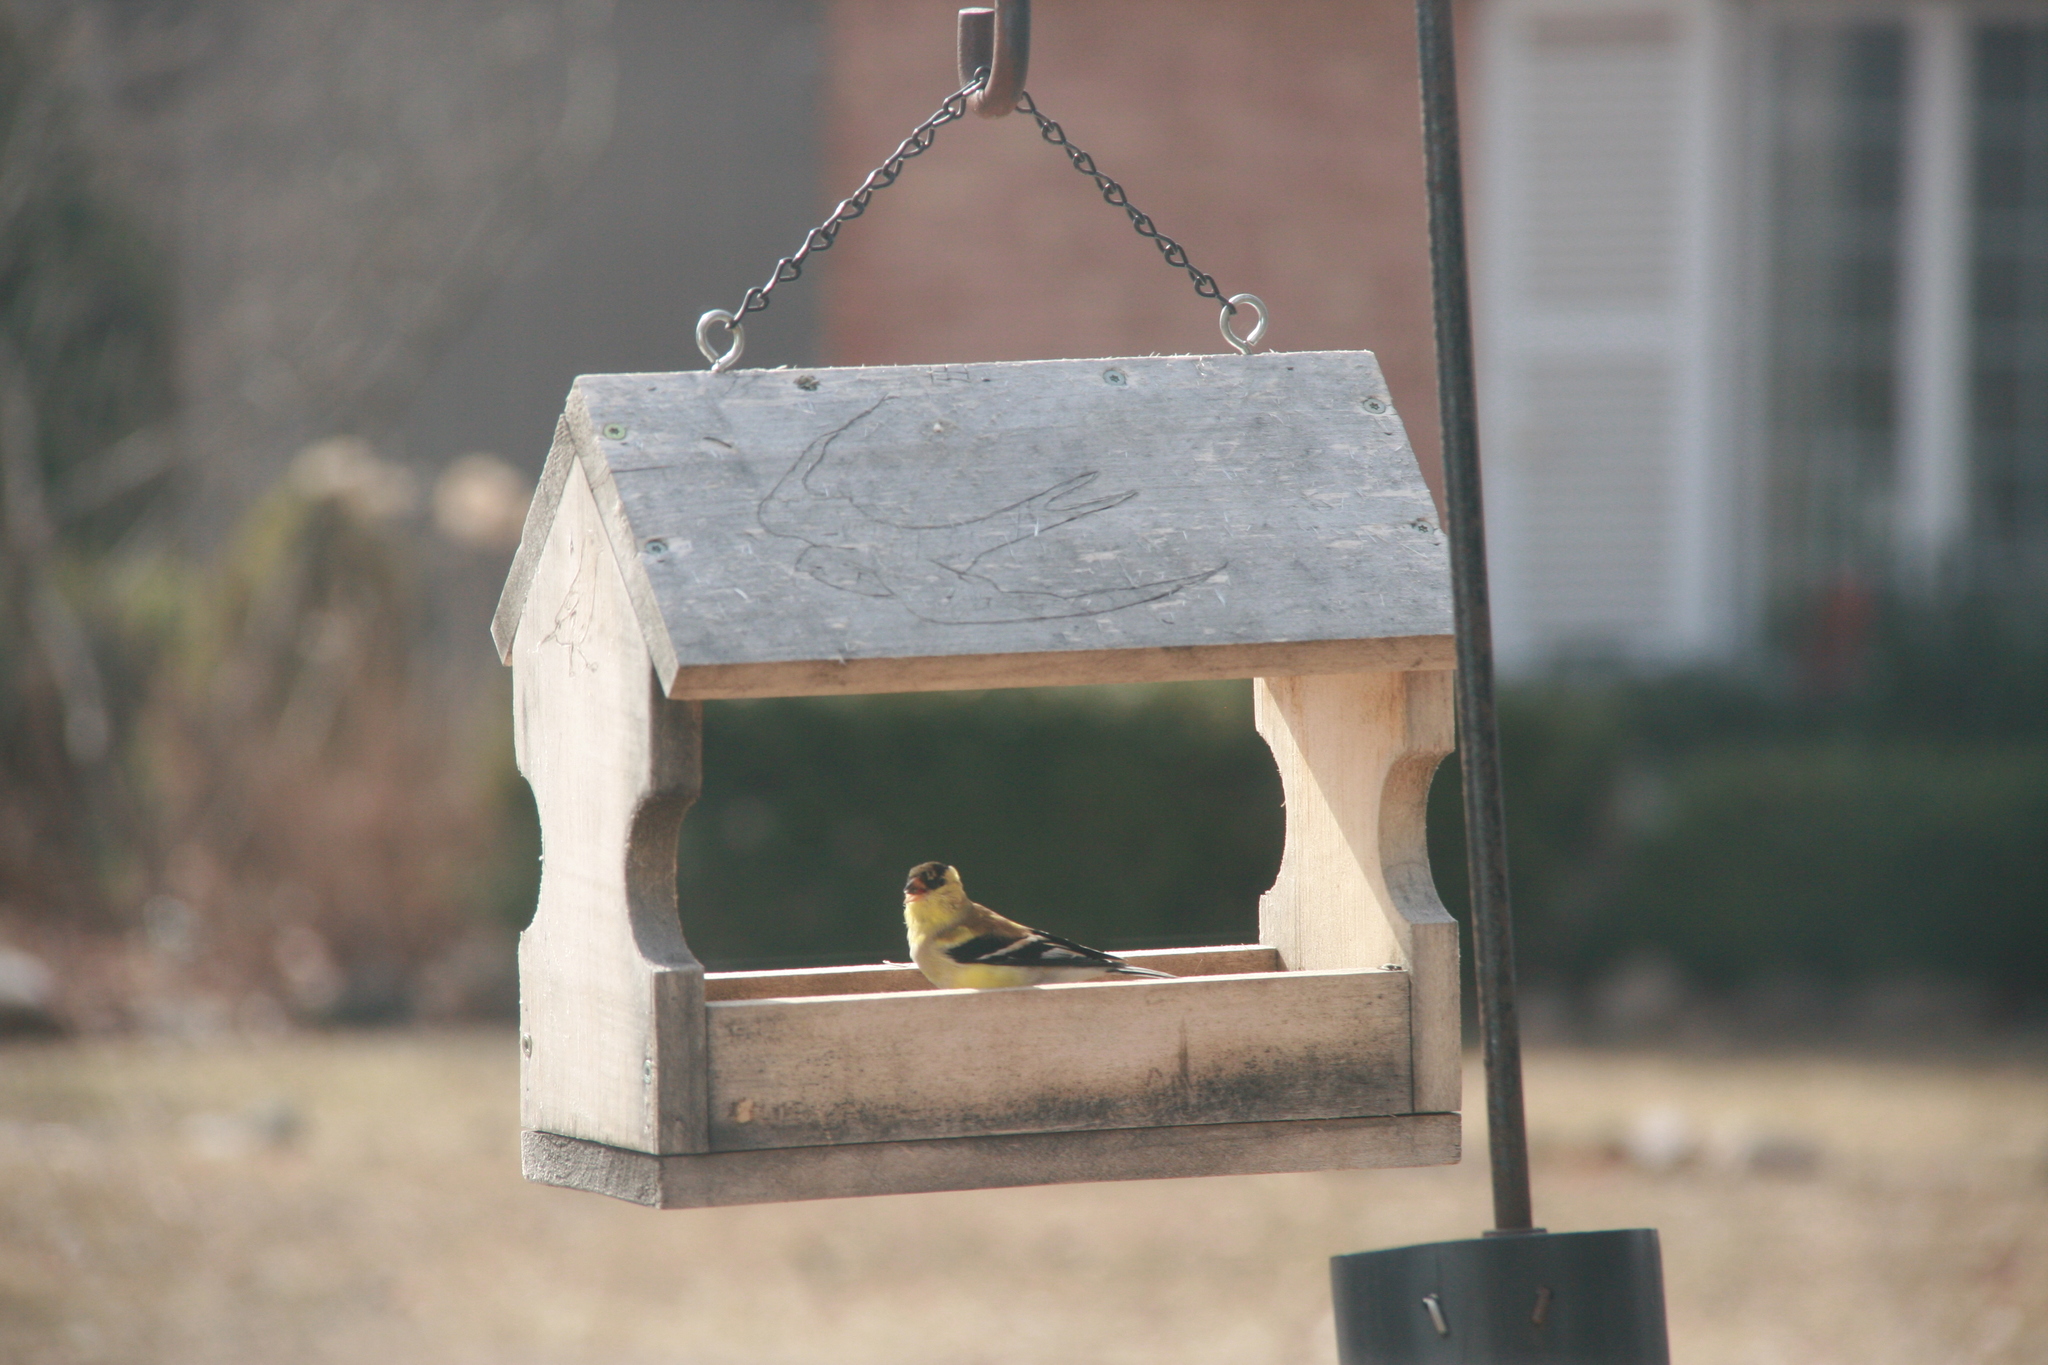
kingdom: Animalia
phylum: Chordata
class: Aves
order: Passeriformes
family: Fringillidae
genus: Spinus
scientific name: Spinus tristis
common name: American goldfinch
